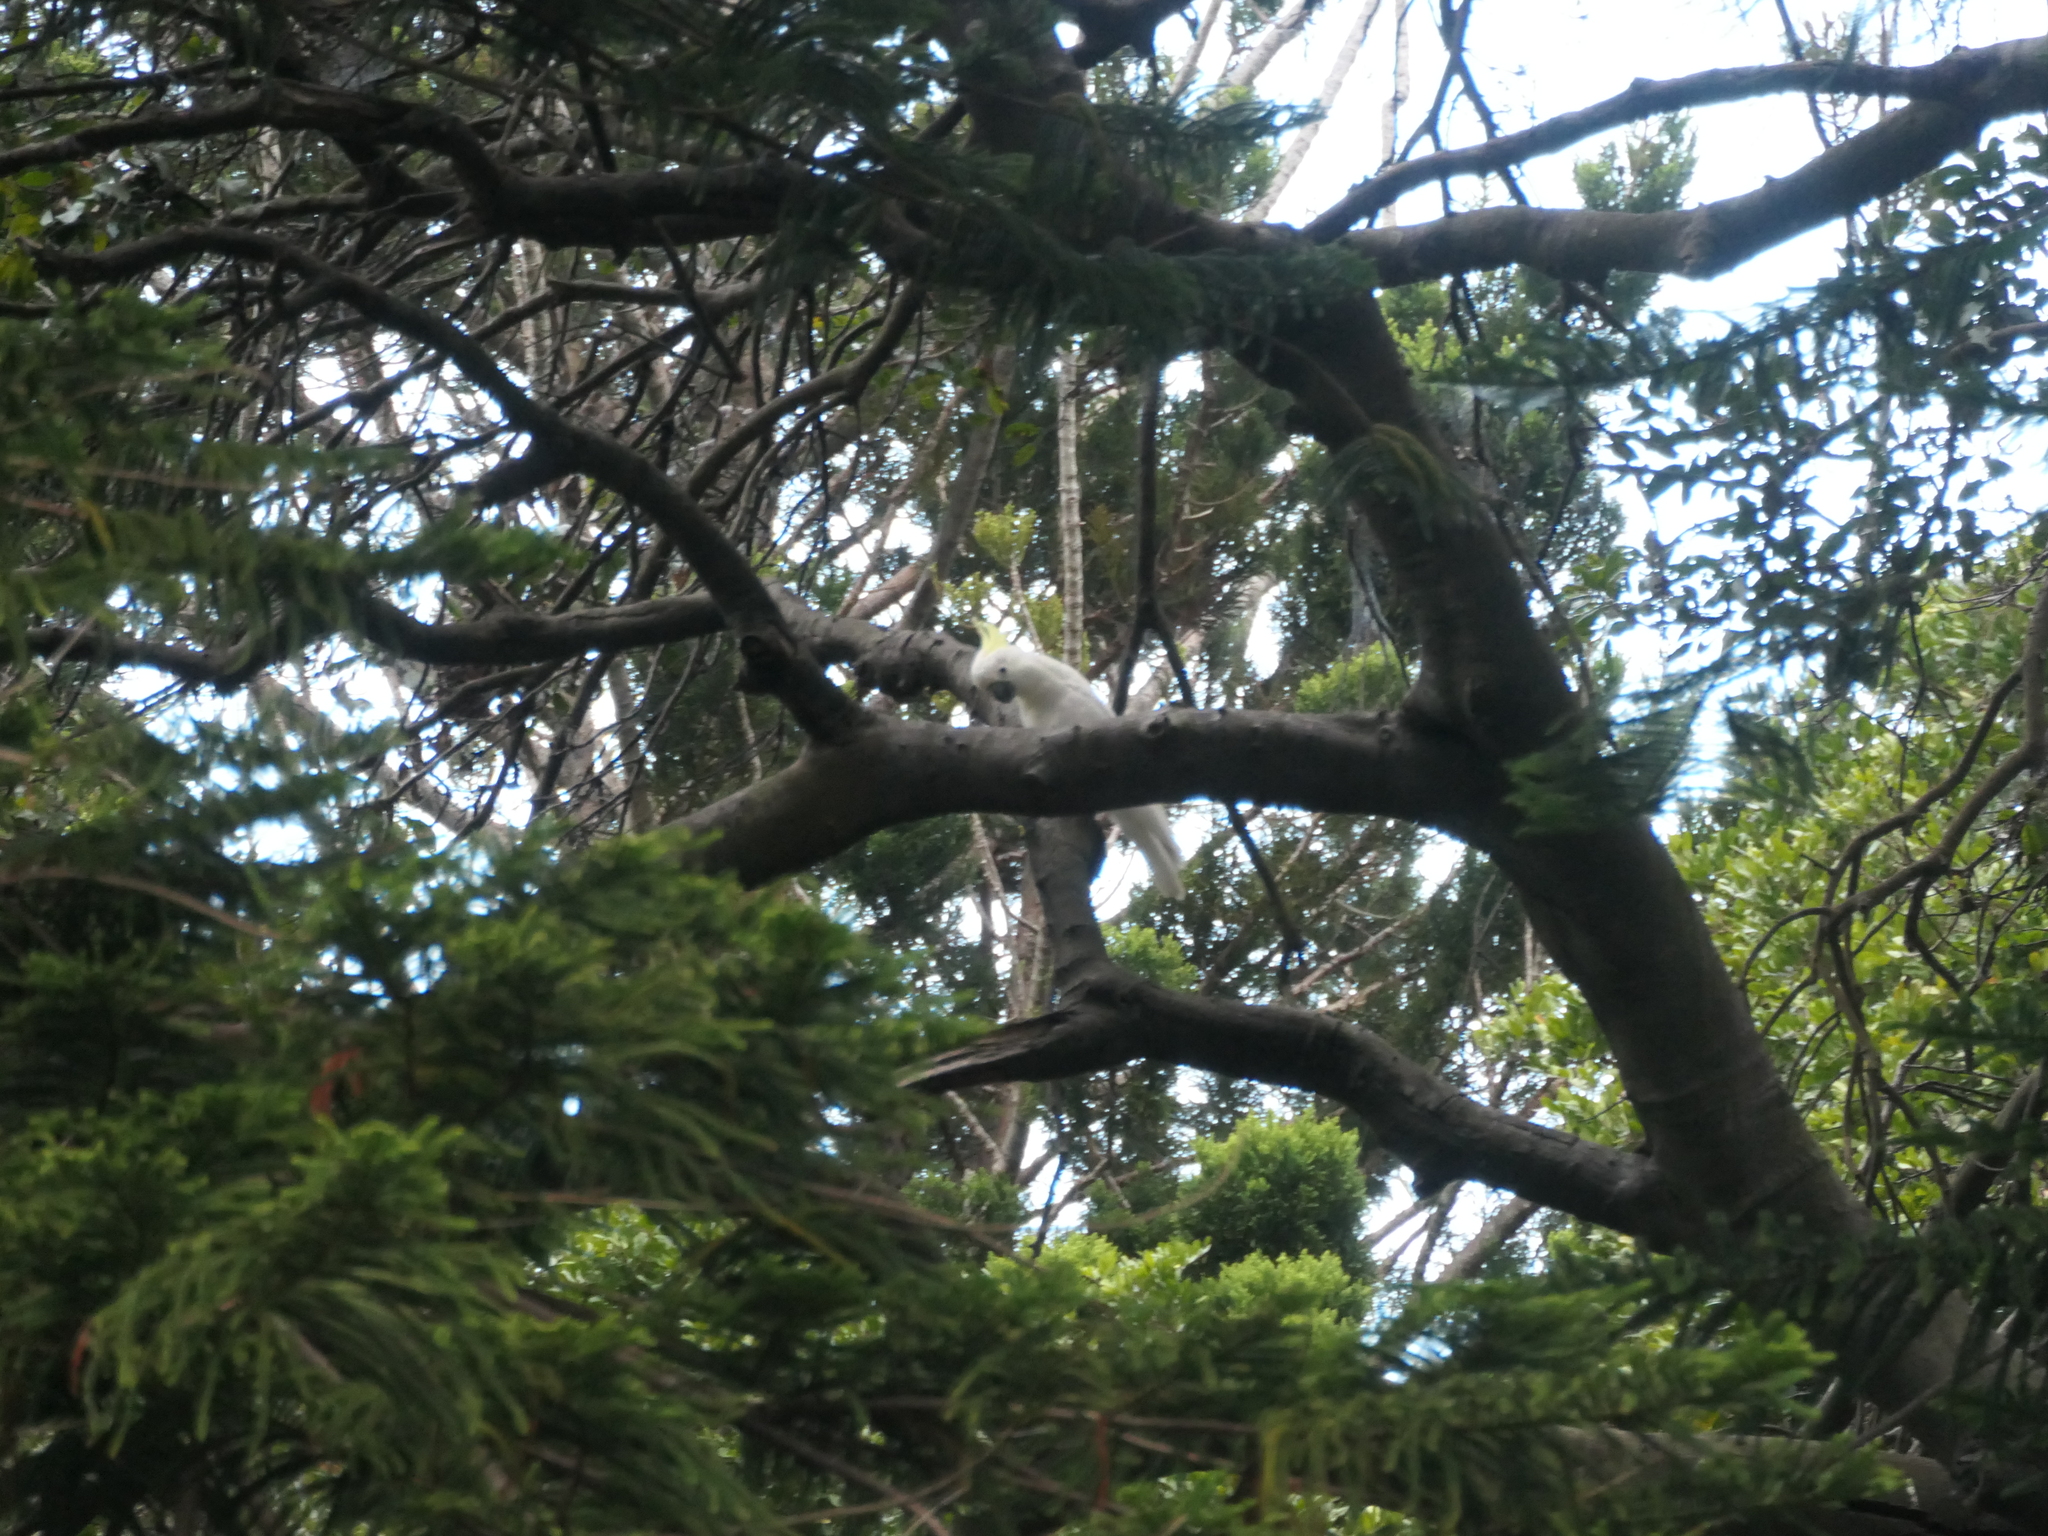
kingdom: Animalia
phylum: Chordata
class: Aves
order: Psittaciformes
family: Psittacidae
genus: Cacatua
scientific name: Cacatua galerita
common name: Sulphur-crested cockatoo
